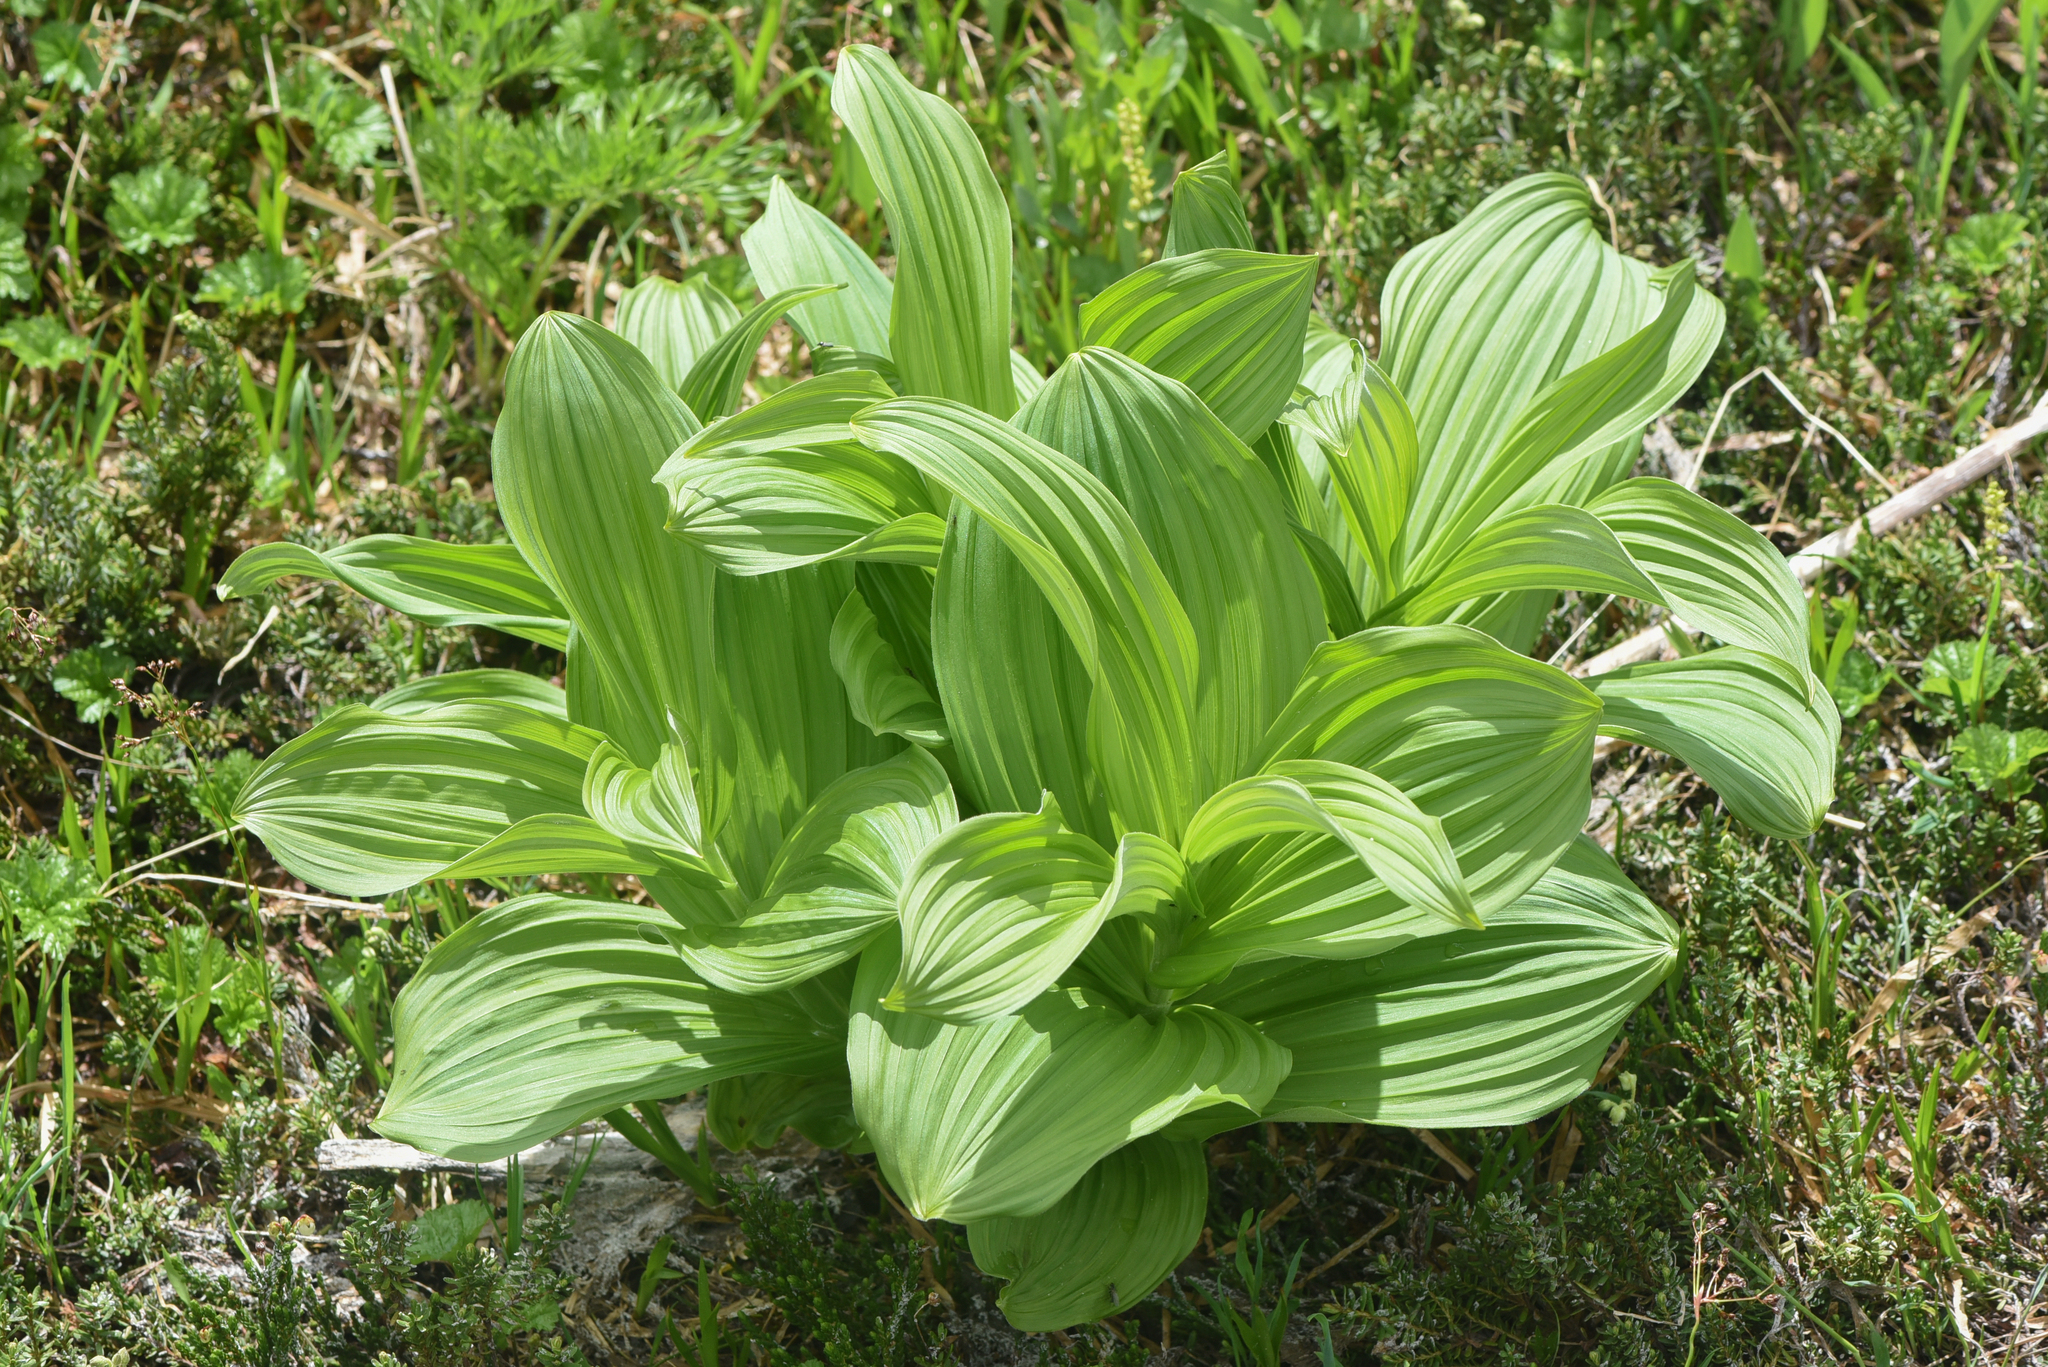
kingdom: Plantae
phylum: Tracheophyta
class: Liliopsida
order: Liliales
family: Melanthiaceae
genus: Veratrum
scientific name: Veratrum viride
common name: American false hellebore
